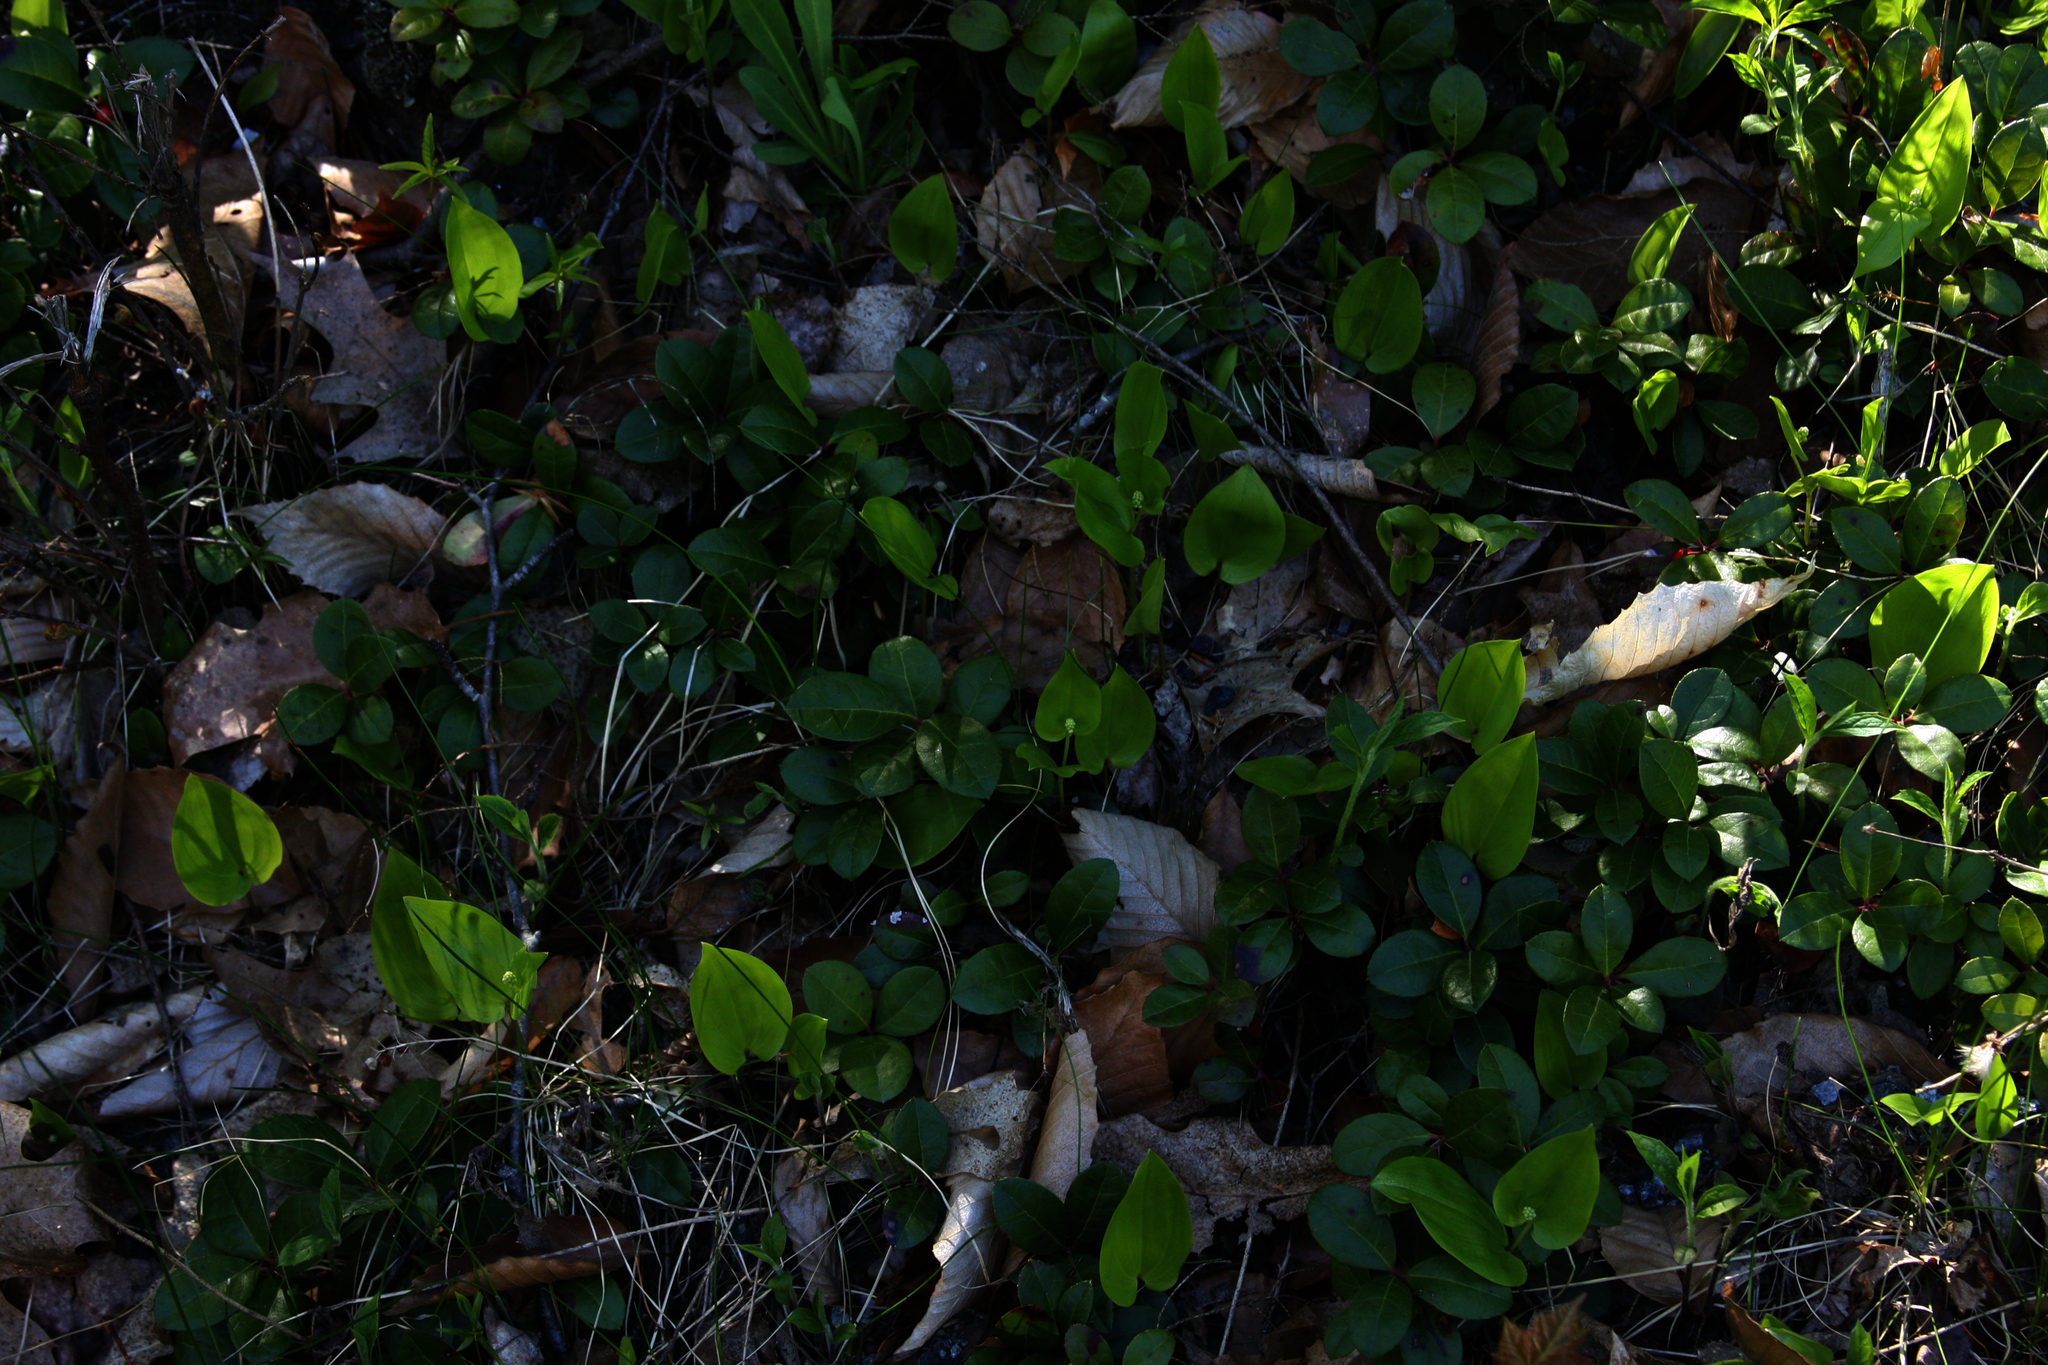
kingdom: Plantae
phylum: Tracheophyta
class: Liliopsida
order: Asparagales
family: Asparagaceae
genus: Maianthemum
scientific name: Maianthemum canadense
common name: False lily-of-the-valley
